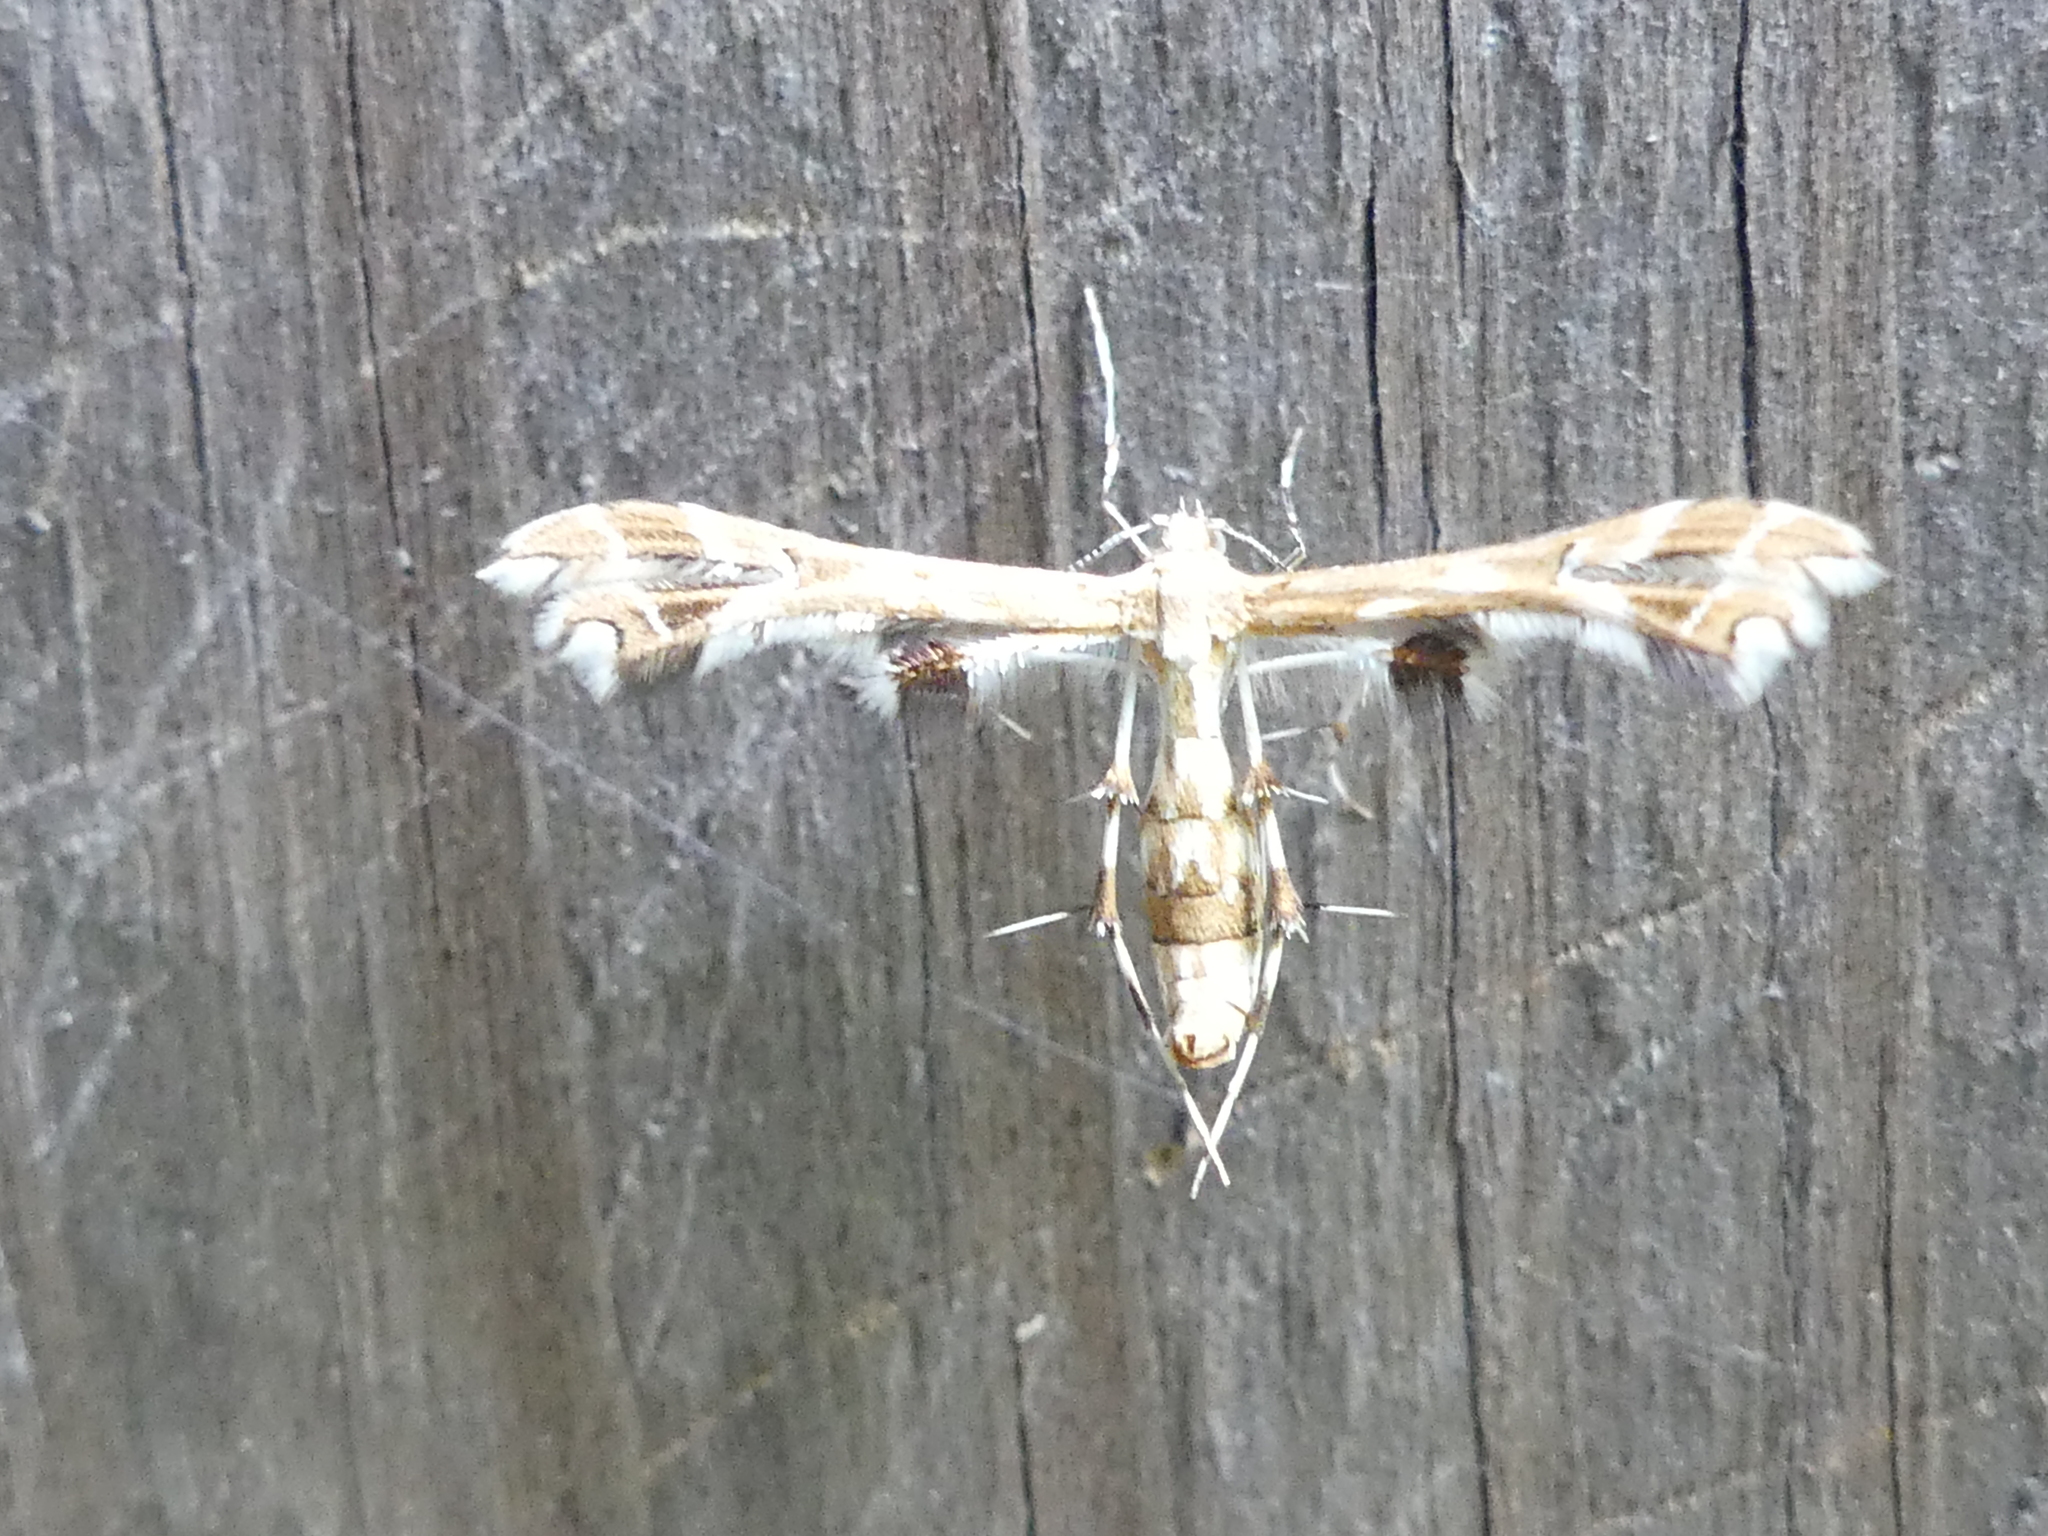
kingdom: Animalia
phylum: Arthropoda
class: Insecta
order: Lepidoptera
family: Pterophoridae
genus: Geina
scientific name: Geina periscelidactylus
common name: Grape plume moth
